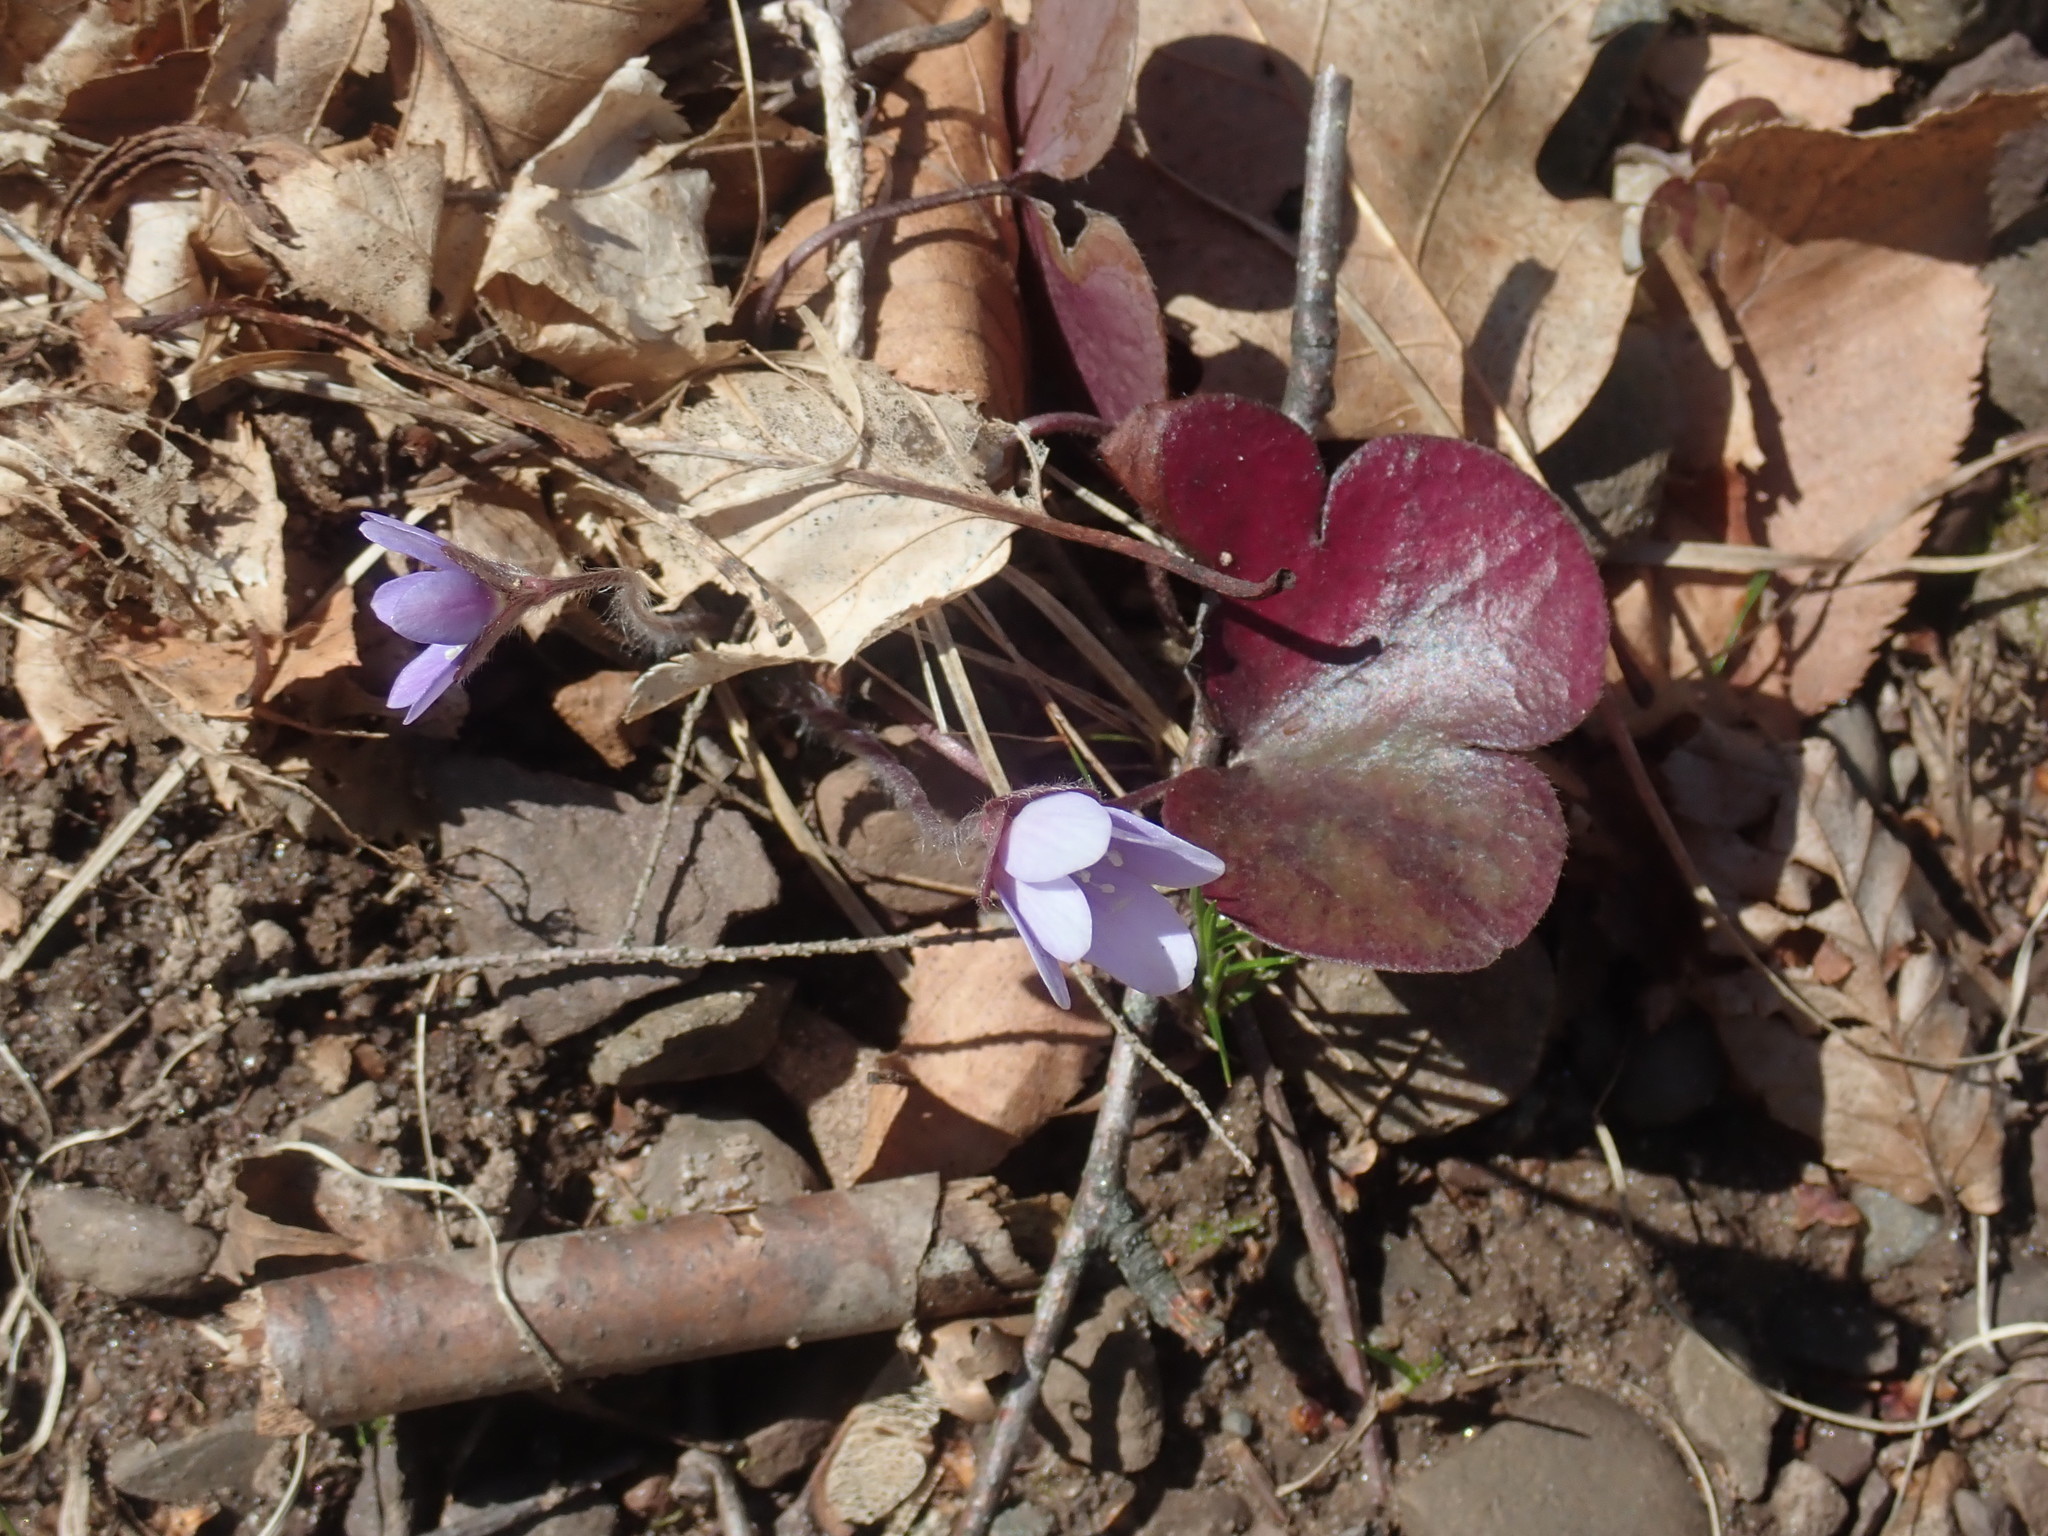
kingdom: Plantae
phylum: Tracheophyta
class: Magnoliopsida
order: Ranunculales
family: Ranunculaceae
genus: Hepatica
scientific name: Hepatica americana
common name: American hepatica
